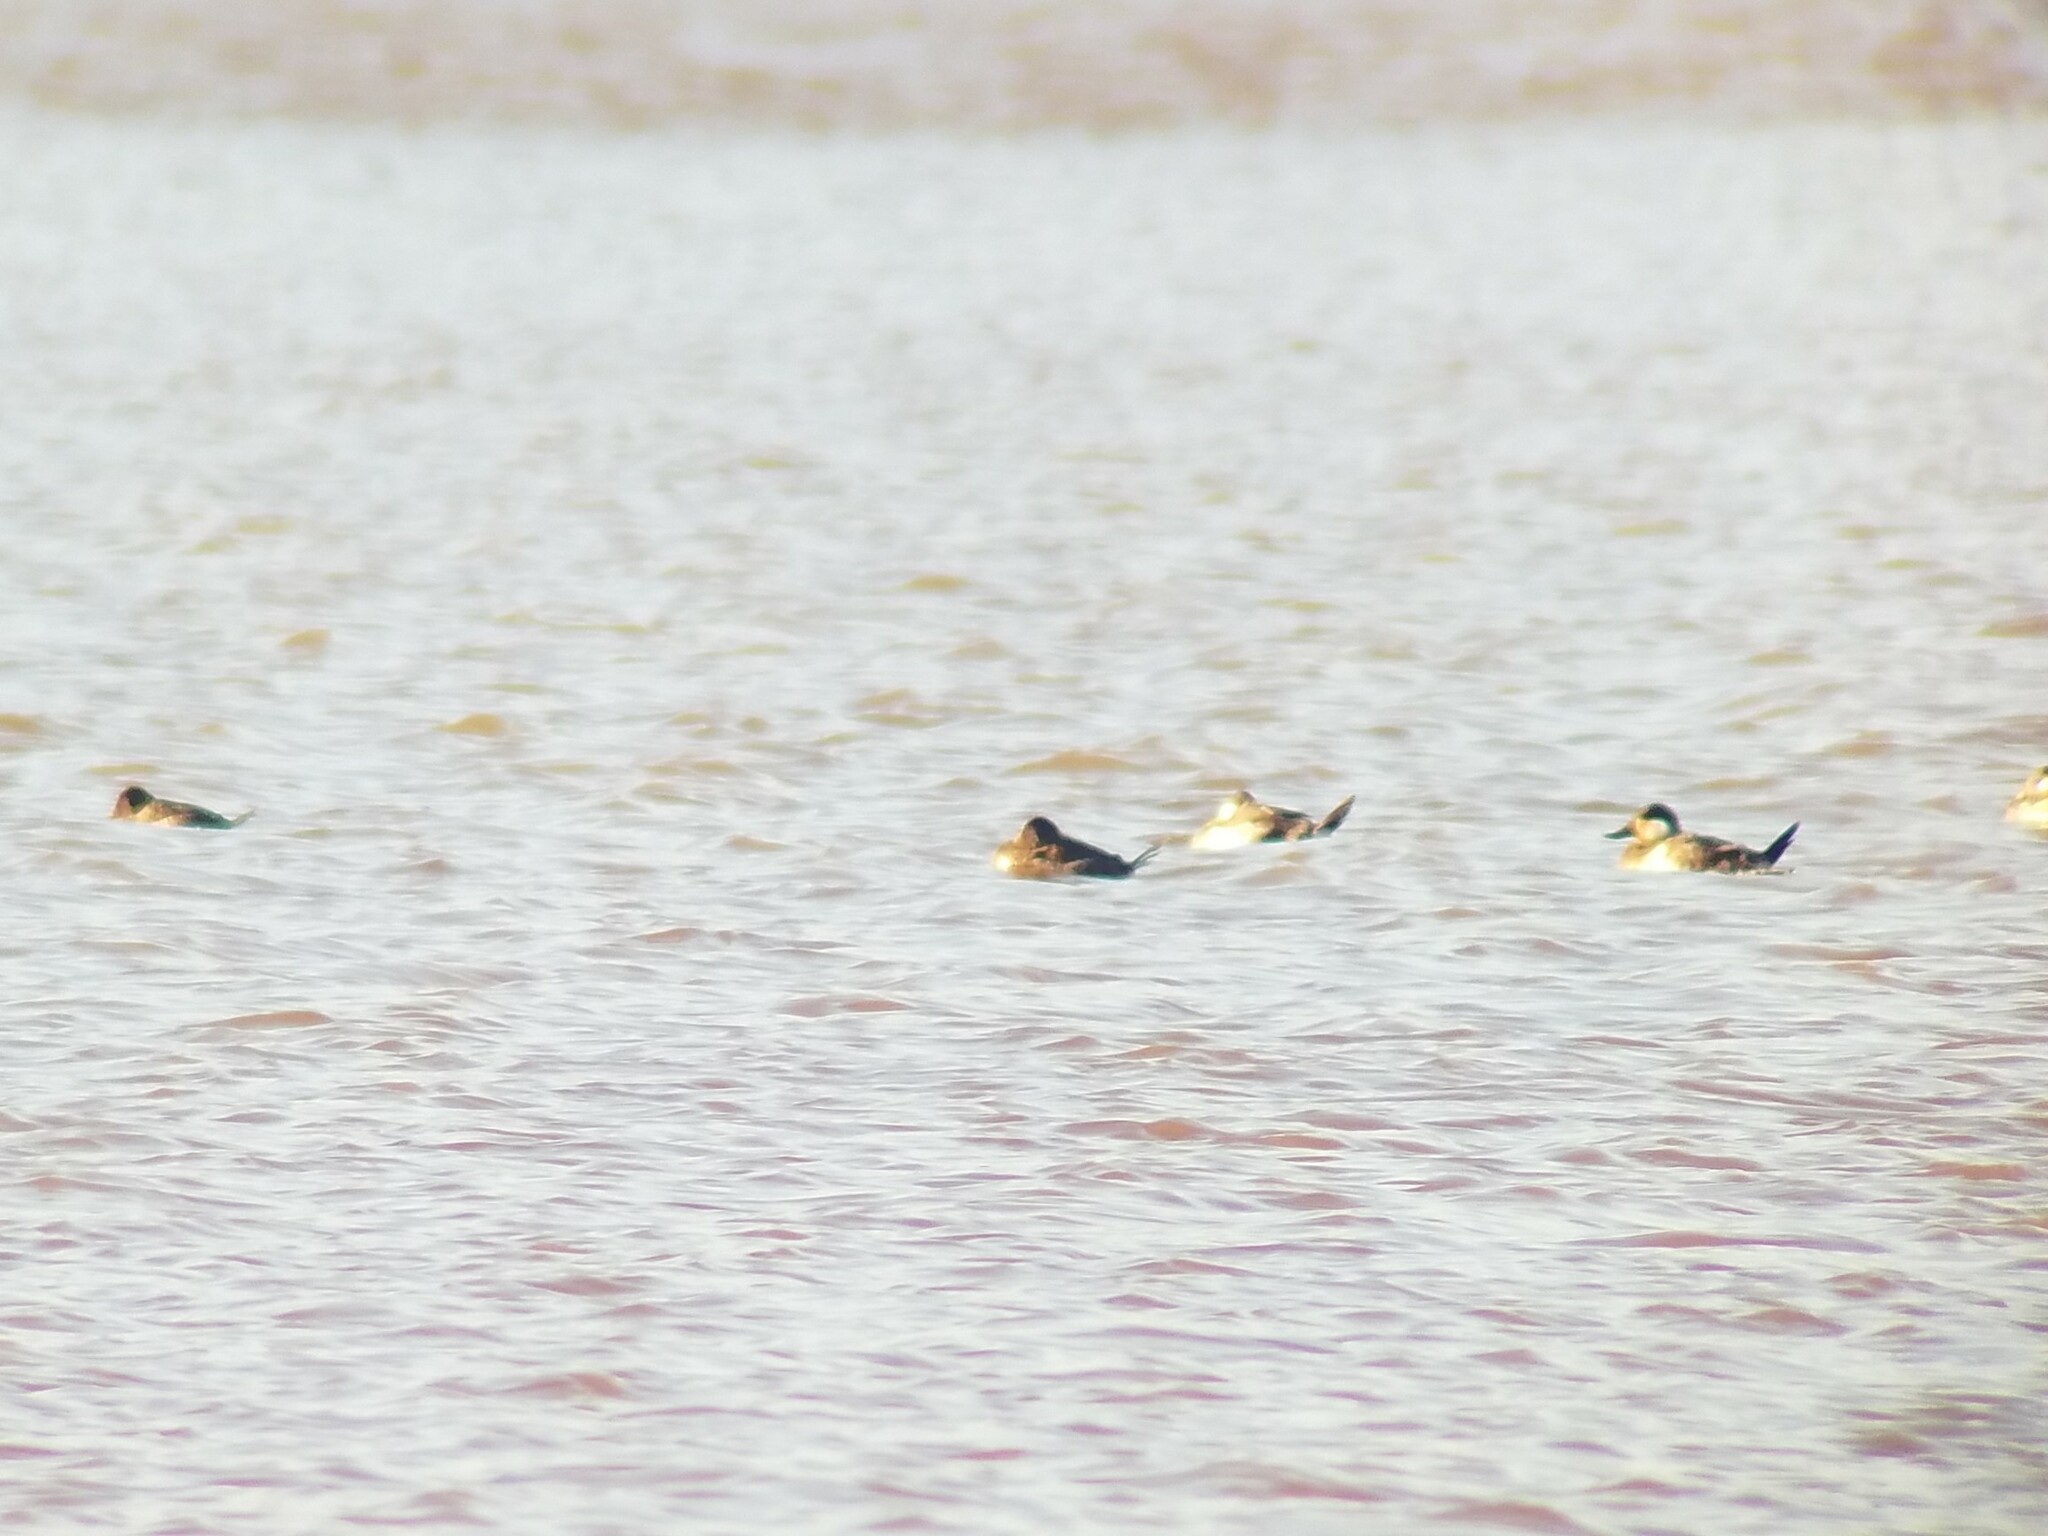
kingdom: Animalia
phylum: Chordata
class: Aves
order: Anseriformes
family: Anatidae
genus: Oxyura
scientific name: Oxyura jamaicensis
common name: Ruddy duck
